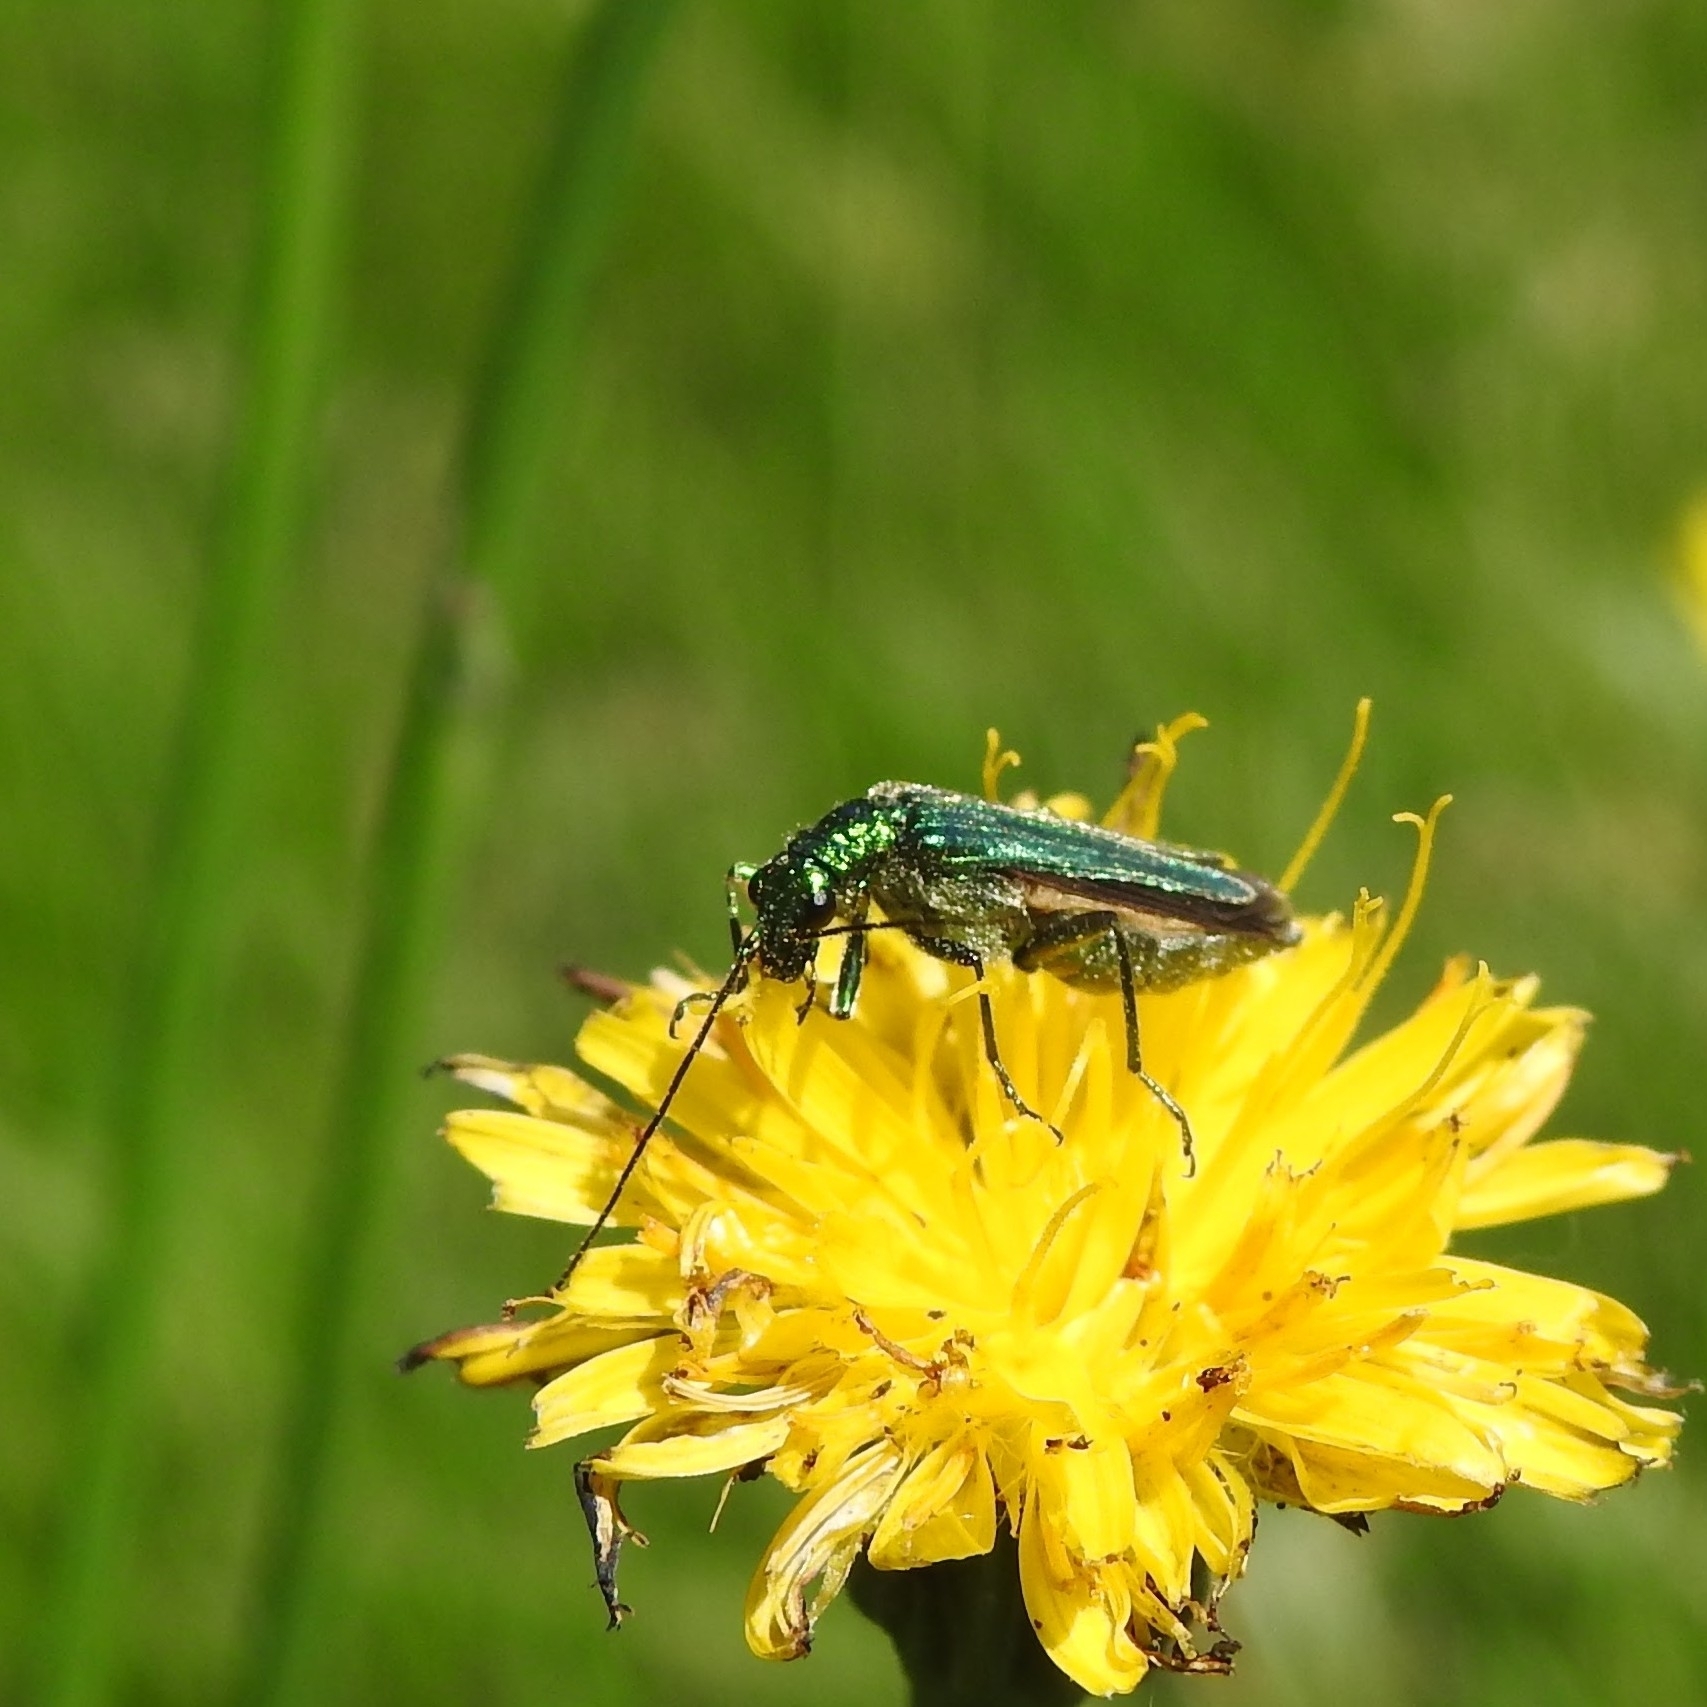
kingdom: Animalia
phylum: Arthropoda
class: Insecta
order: Coleoptera
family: Oedemeridae
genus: Oedemera
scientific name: Oedemera nobilis
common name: Swollen-thighed beetle
